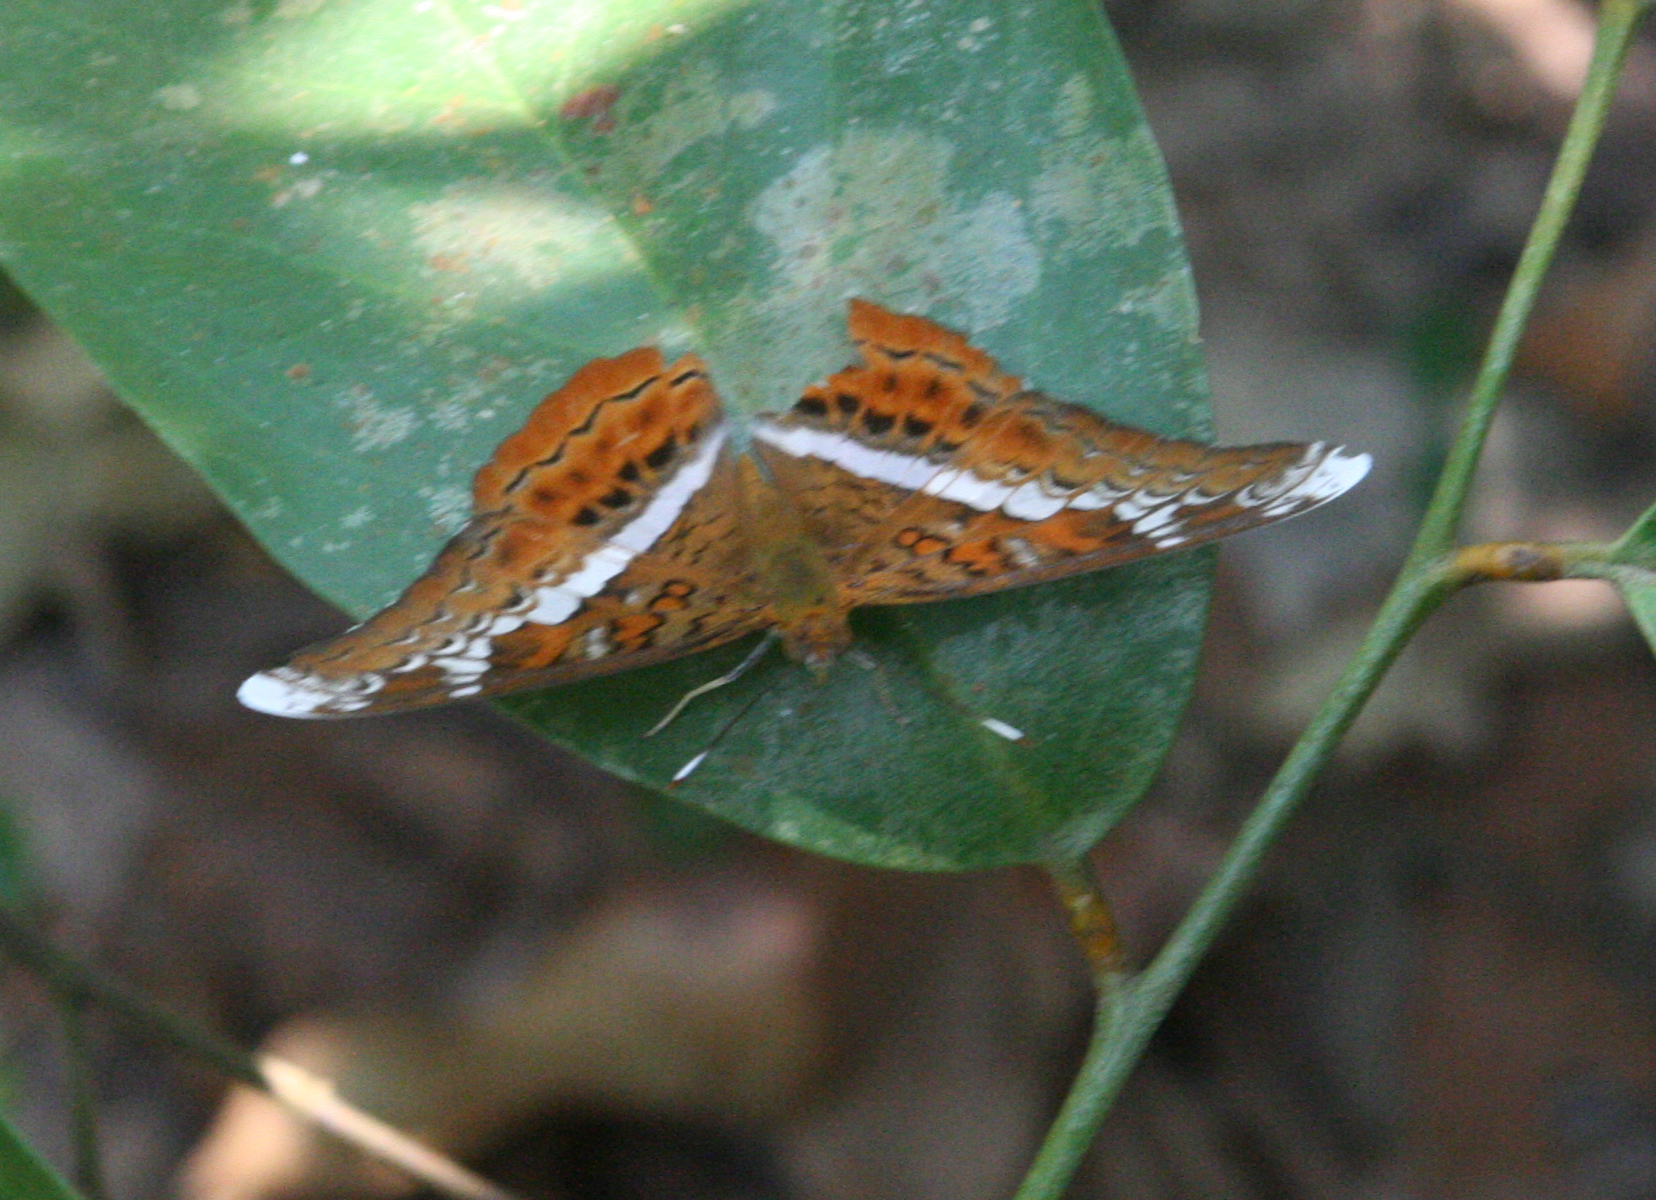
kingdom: Animalia
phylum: Arthropoda
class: Insecta
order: Lepidoptera
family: Nymphalidae
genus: Lebadea
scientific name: Lebadea martha
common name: Knight
